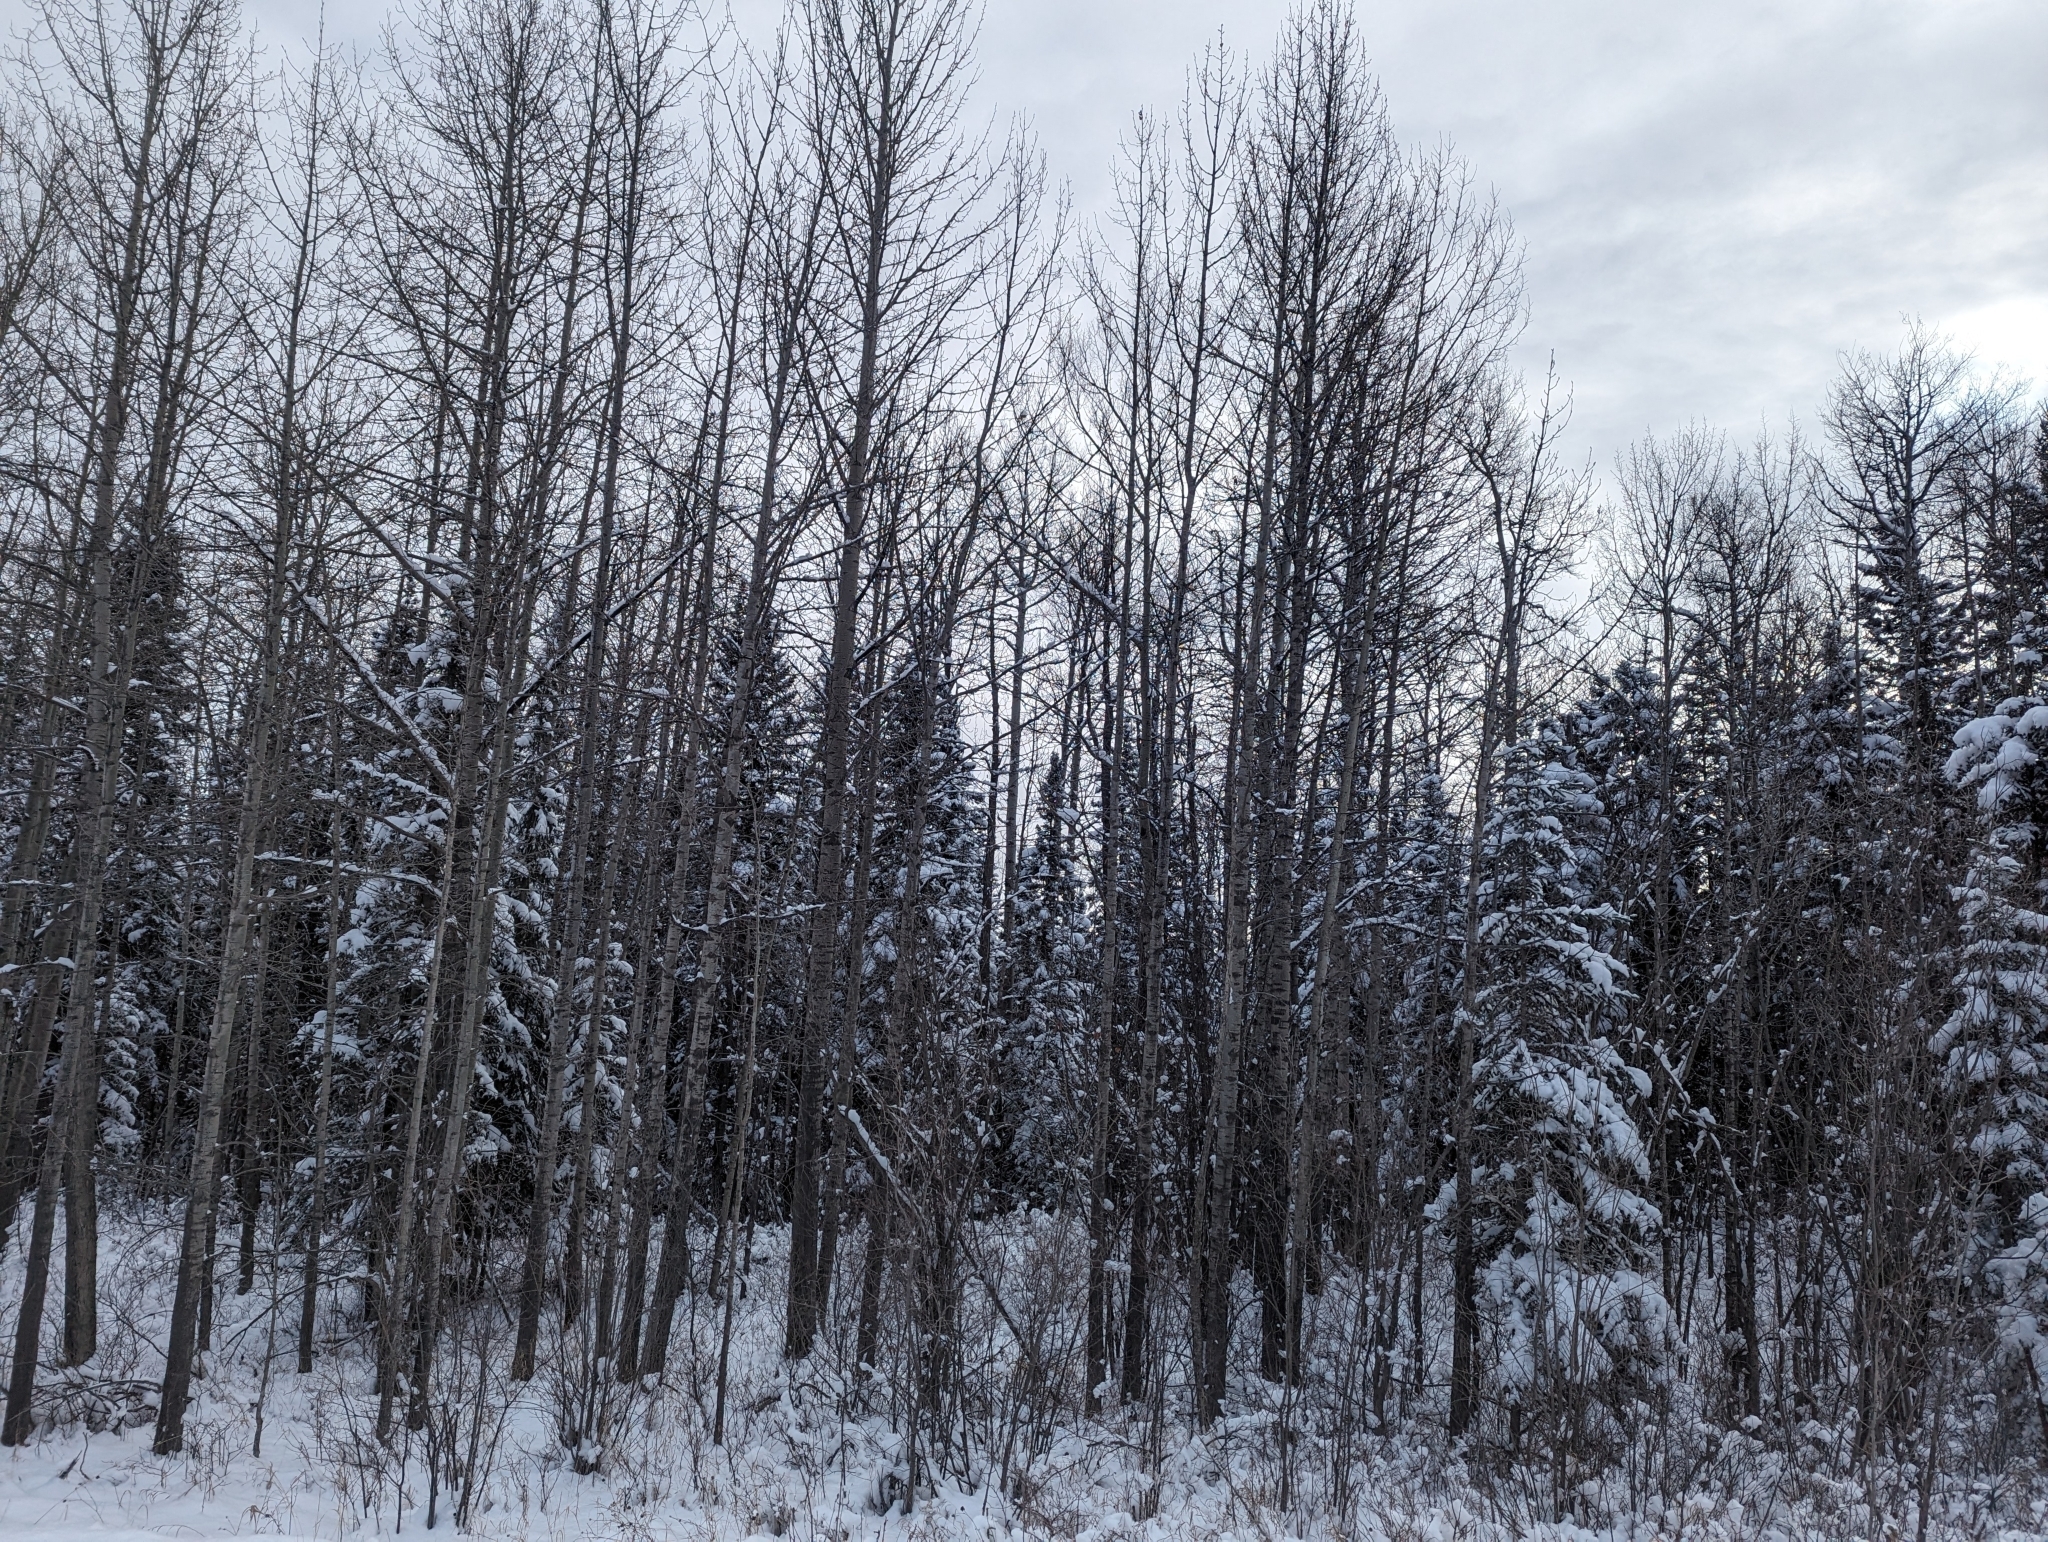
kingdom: Plantae
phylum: Tracheophyta
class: Magnoliopsida
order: Malpighiales
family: Salicaceae
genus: Populus
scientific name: Populus tremuloides
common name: Quaking aspen
